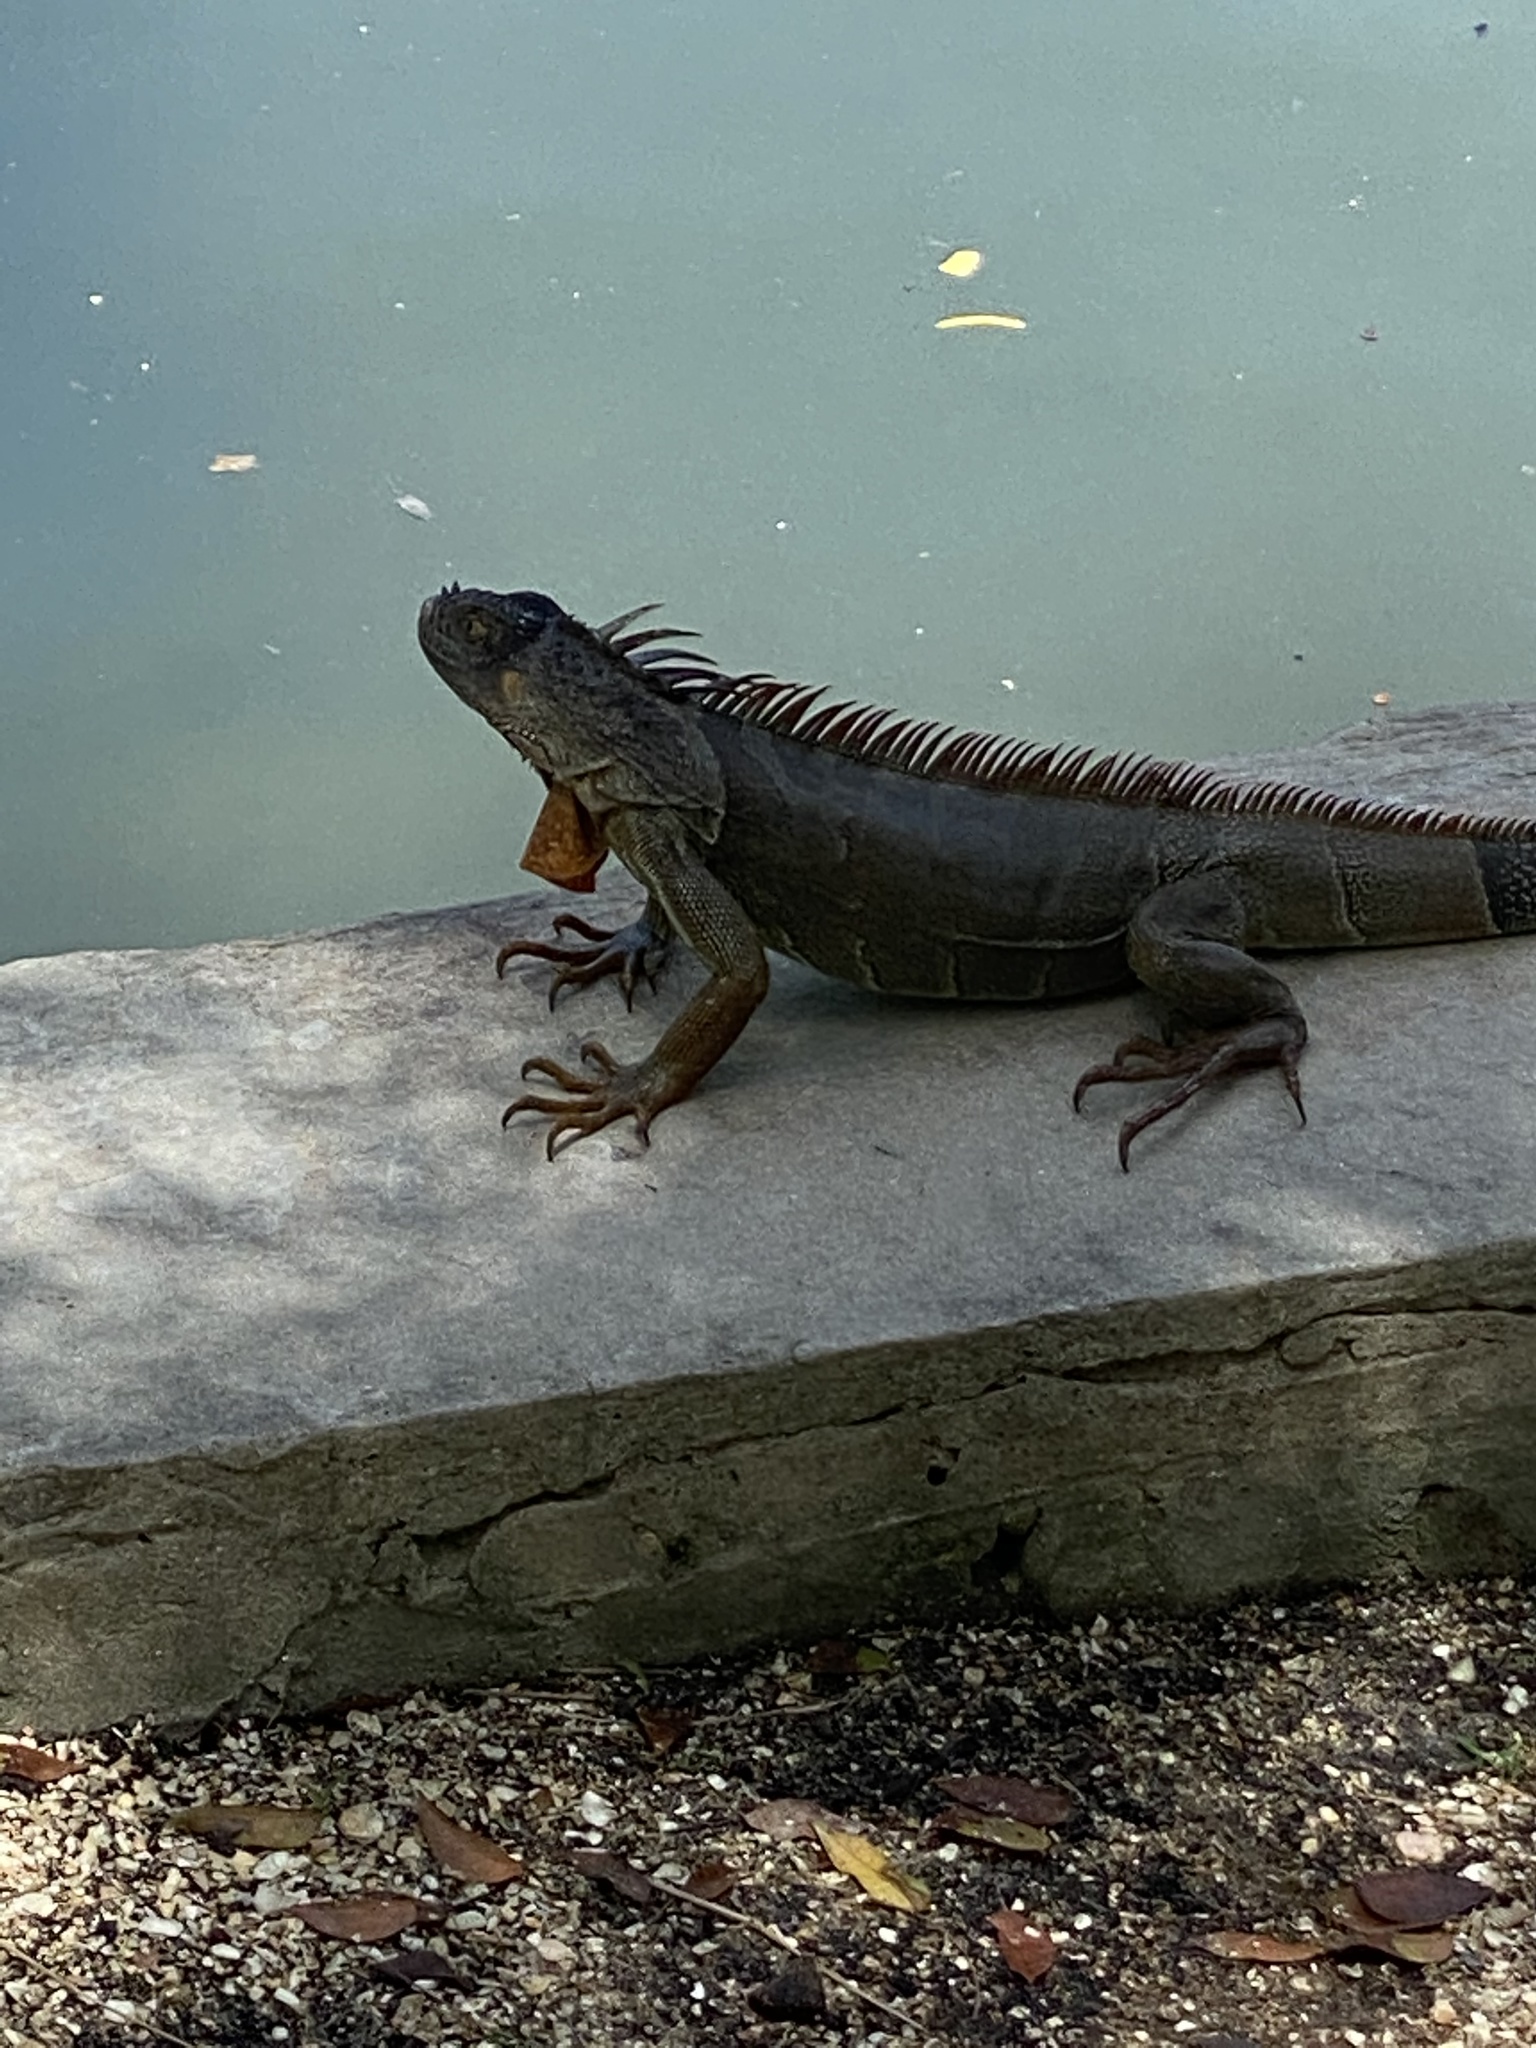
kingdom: Animalia
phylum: Chordata
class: Squamata
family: Iguanidae
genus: Iguana
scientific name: Iguana iguana
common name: Green iguana
